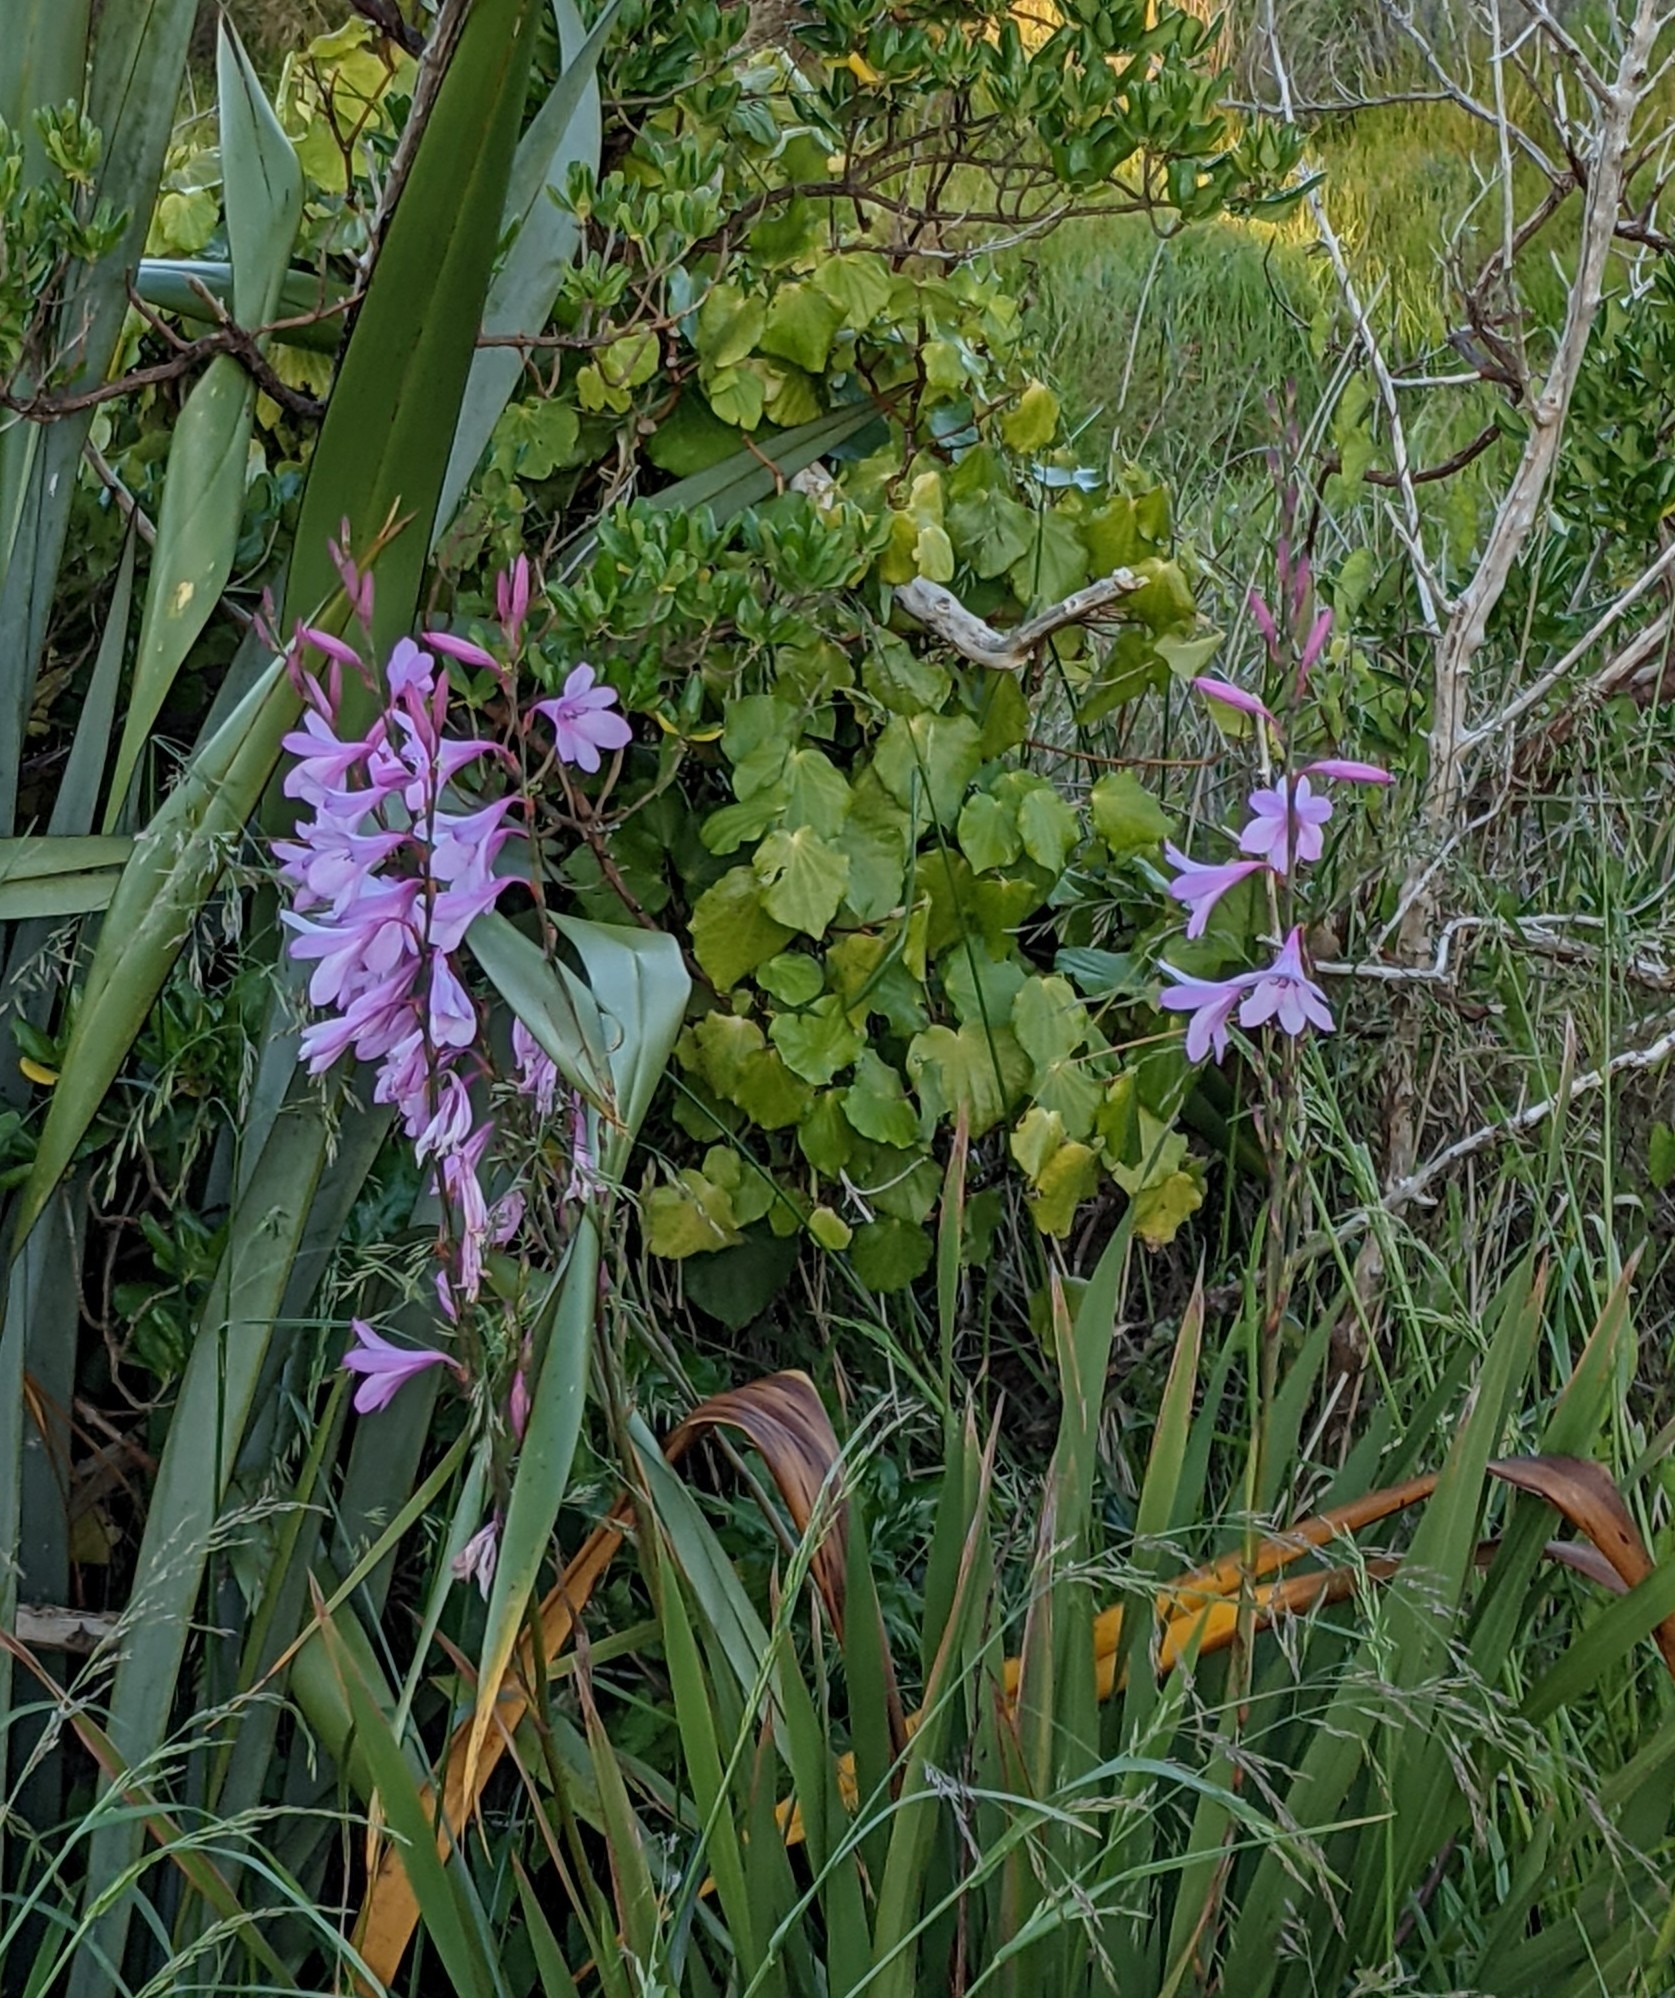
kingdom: Plantae
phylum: Tracheophyta
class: Liliopsida
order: Asparagales
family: Asparagaceae
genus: Hyacinthoides
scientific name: Hyacinthoides massartiana
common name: Hyacinthoides
